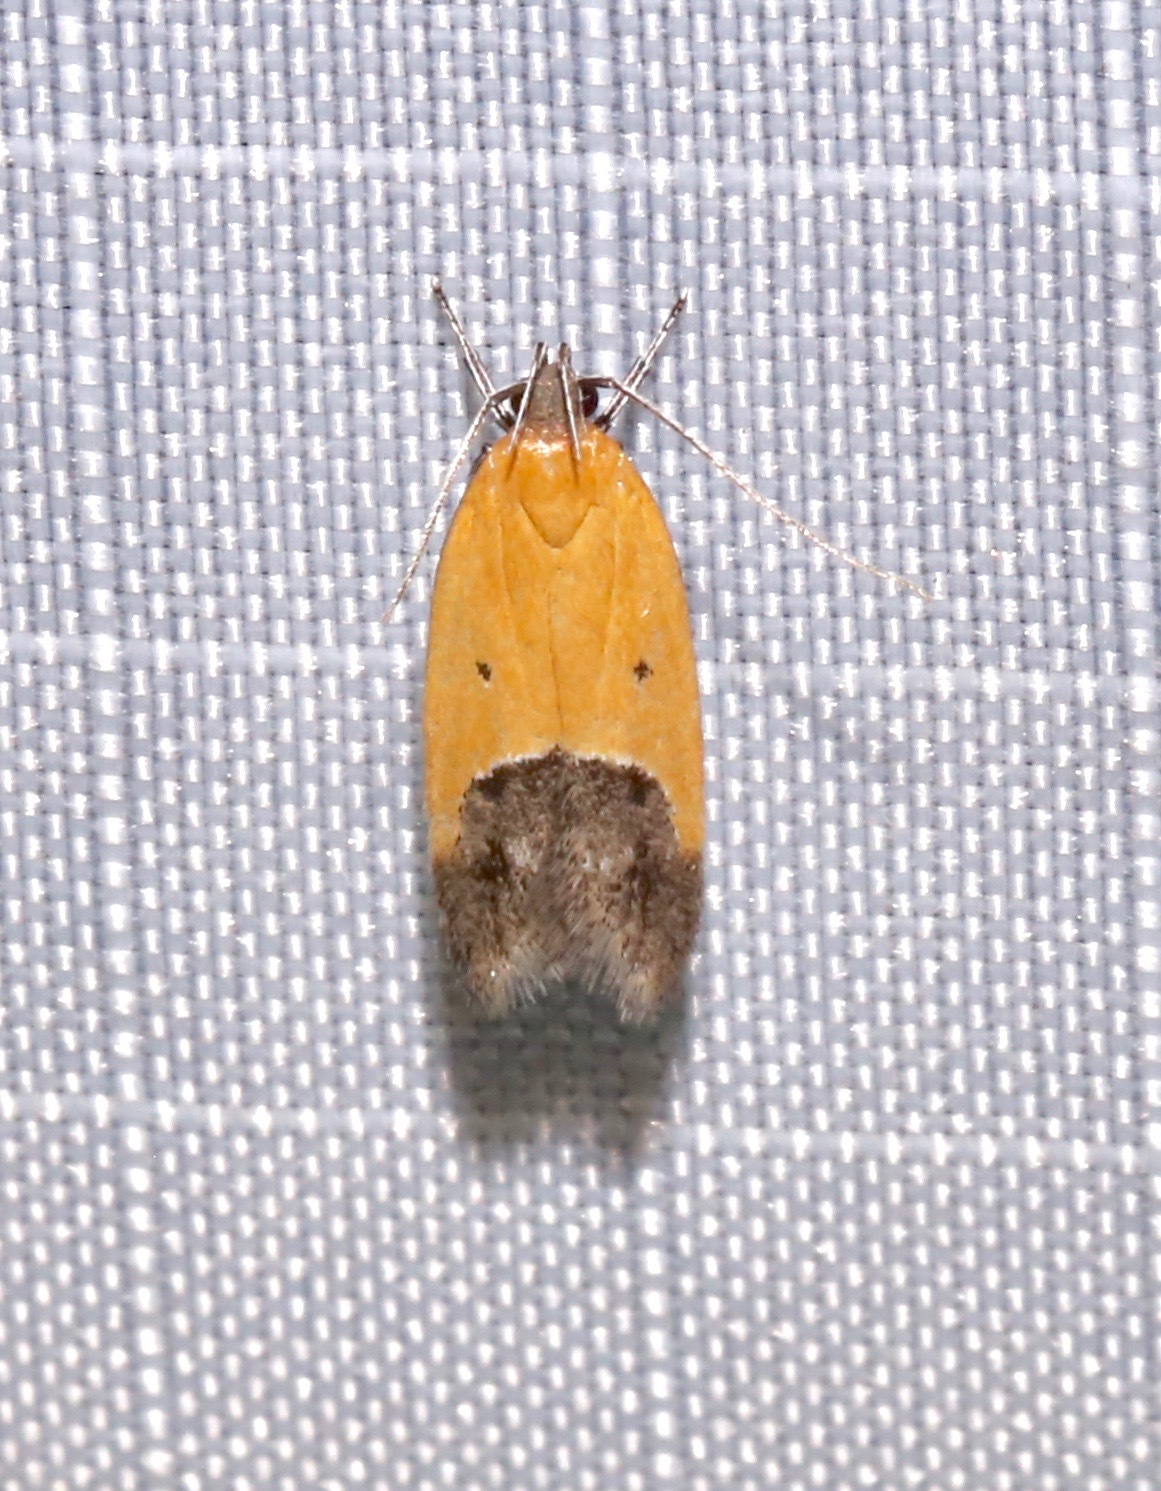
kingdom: Animalia
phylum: Arthropoda
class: Insecta
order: Lepidoptera
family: Momphidae
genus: Triclonella
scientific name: Triclonella pergandeella
